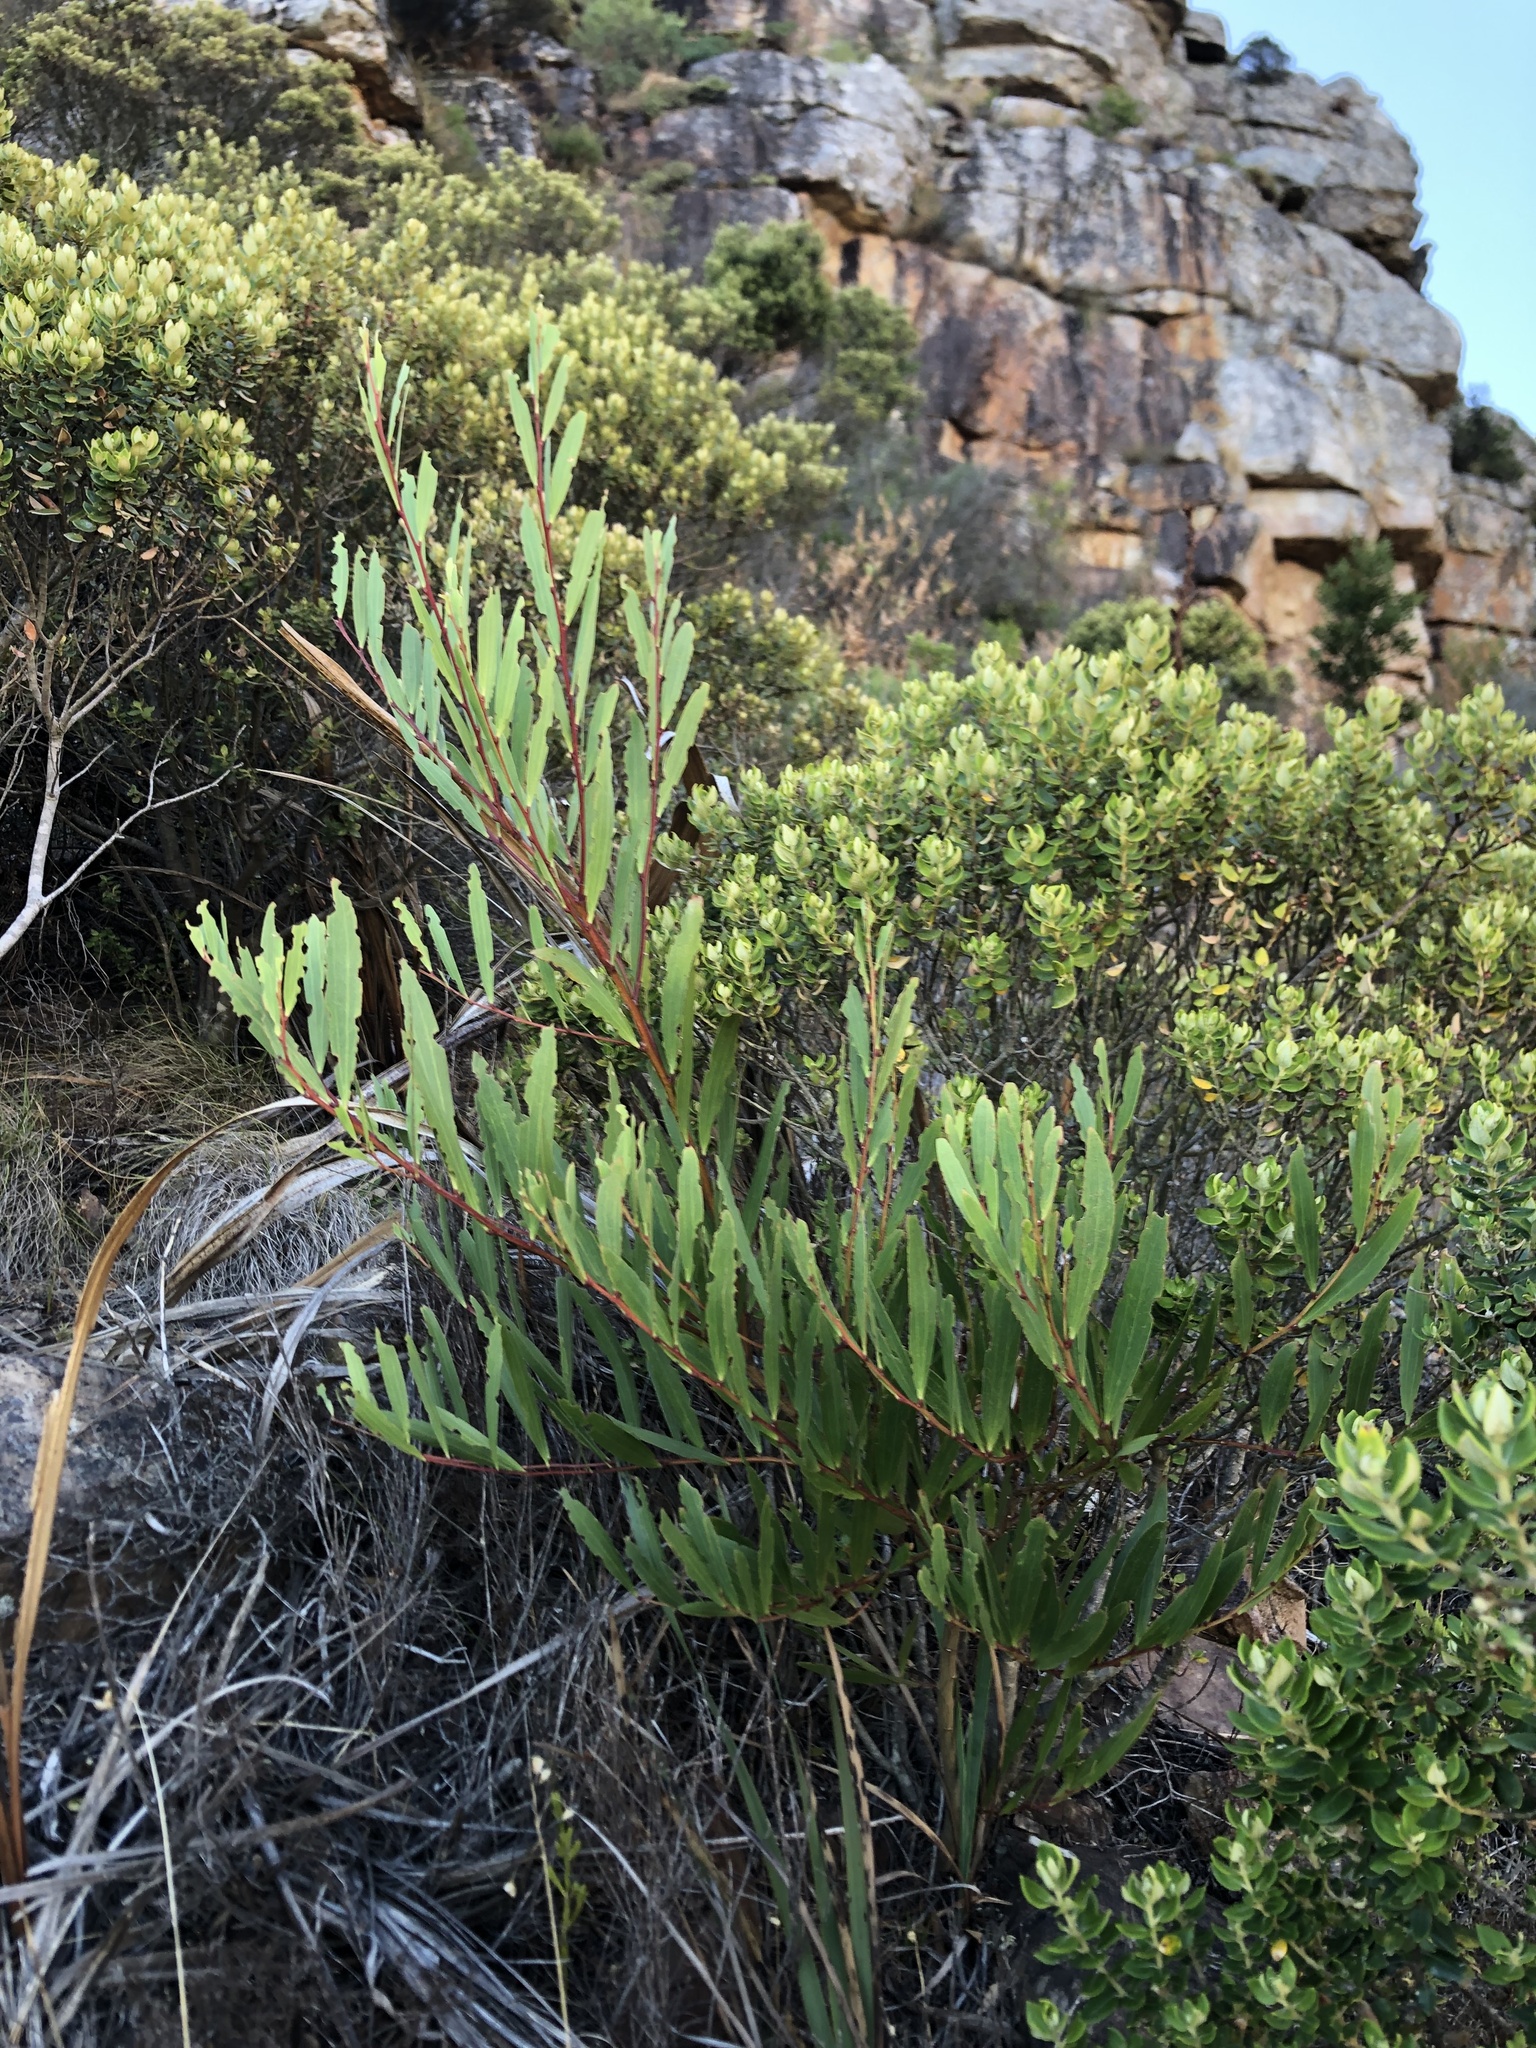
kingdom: Plantae
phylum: Tracheophyta
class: Magnoliopsida
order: Fabales
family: Fabaceae
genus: Acacia
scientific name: Acacia longifolia
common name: Sydney golden wattle
